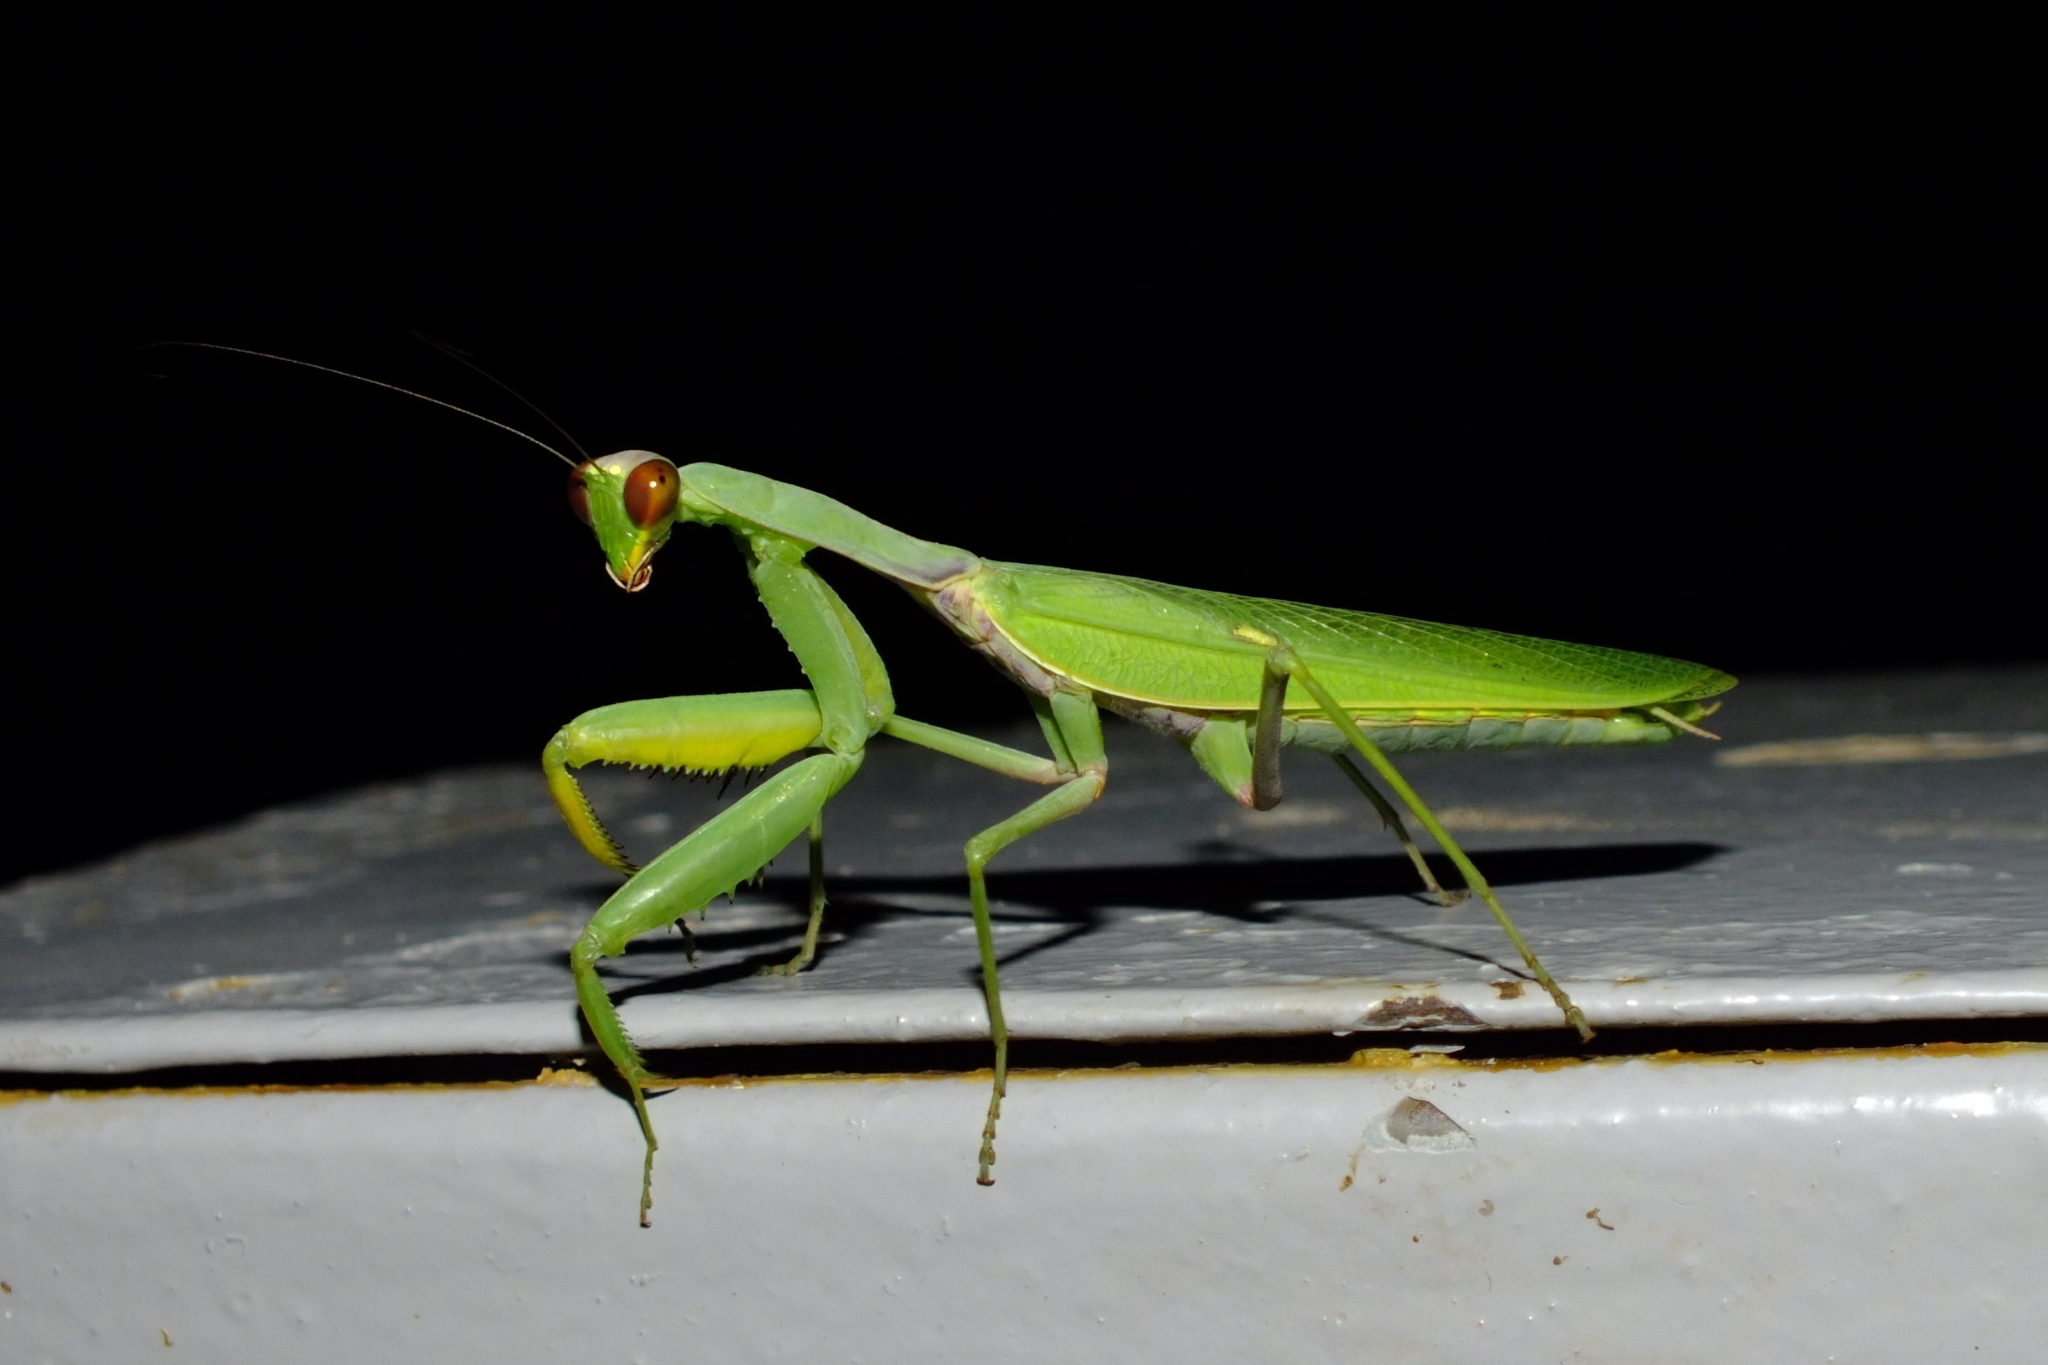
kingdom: Animalia
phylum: Arthropoda
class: Insecta
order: Mantodea
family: Mantidae
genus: Hierodula
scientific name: Hierodula transcaucasica
